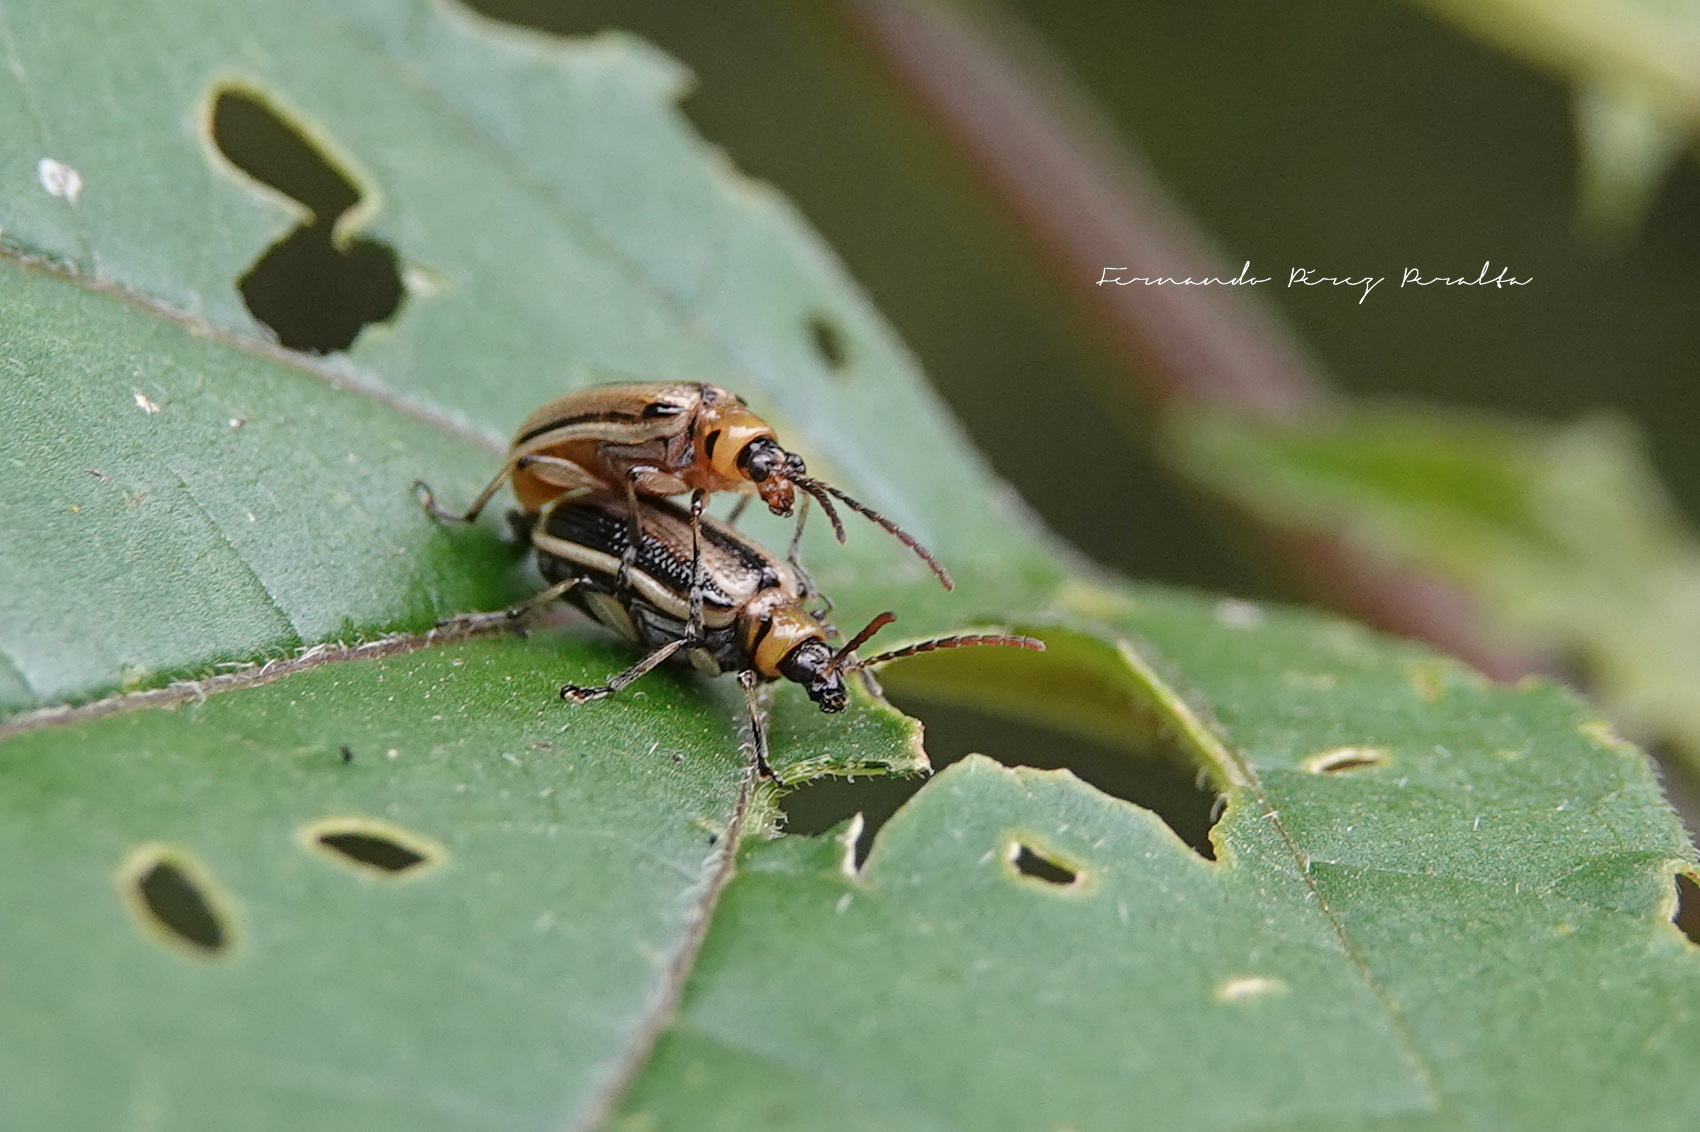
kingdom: Animalia
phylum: Arthropoda
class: Insecta
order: Coleoptera
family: Chrysomelidae
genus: Lema
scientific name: Lema
